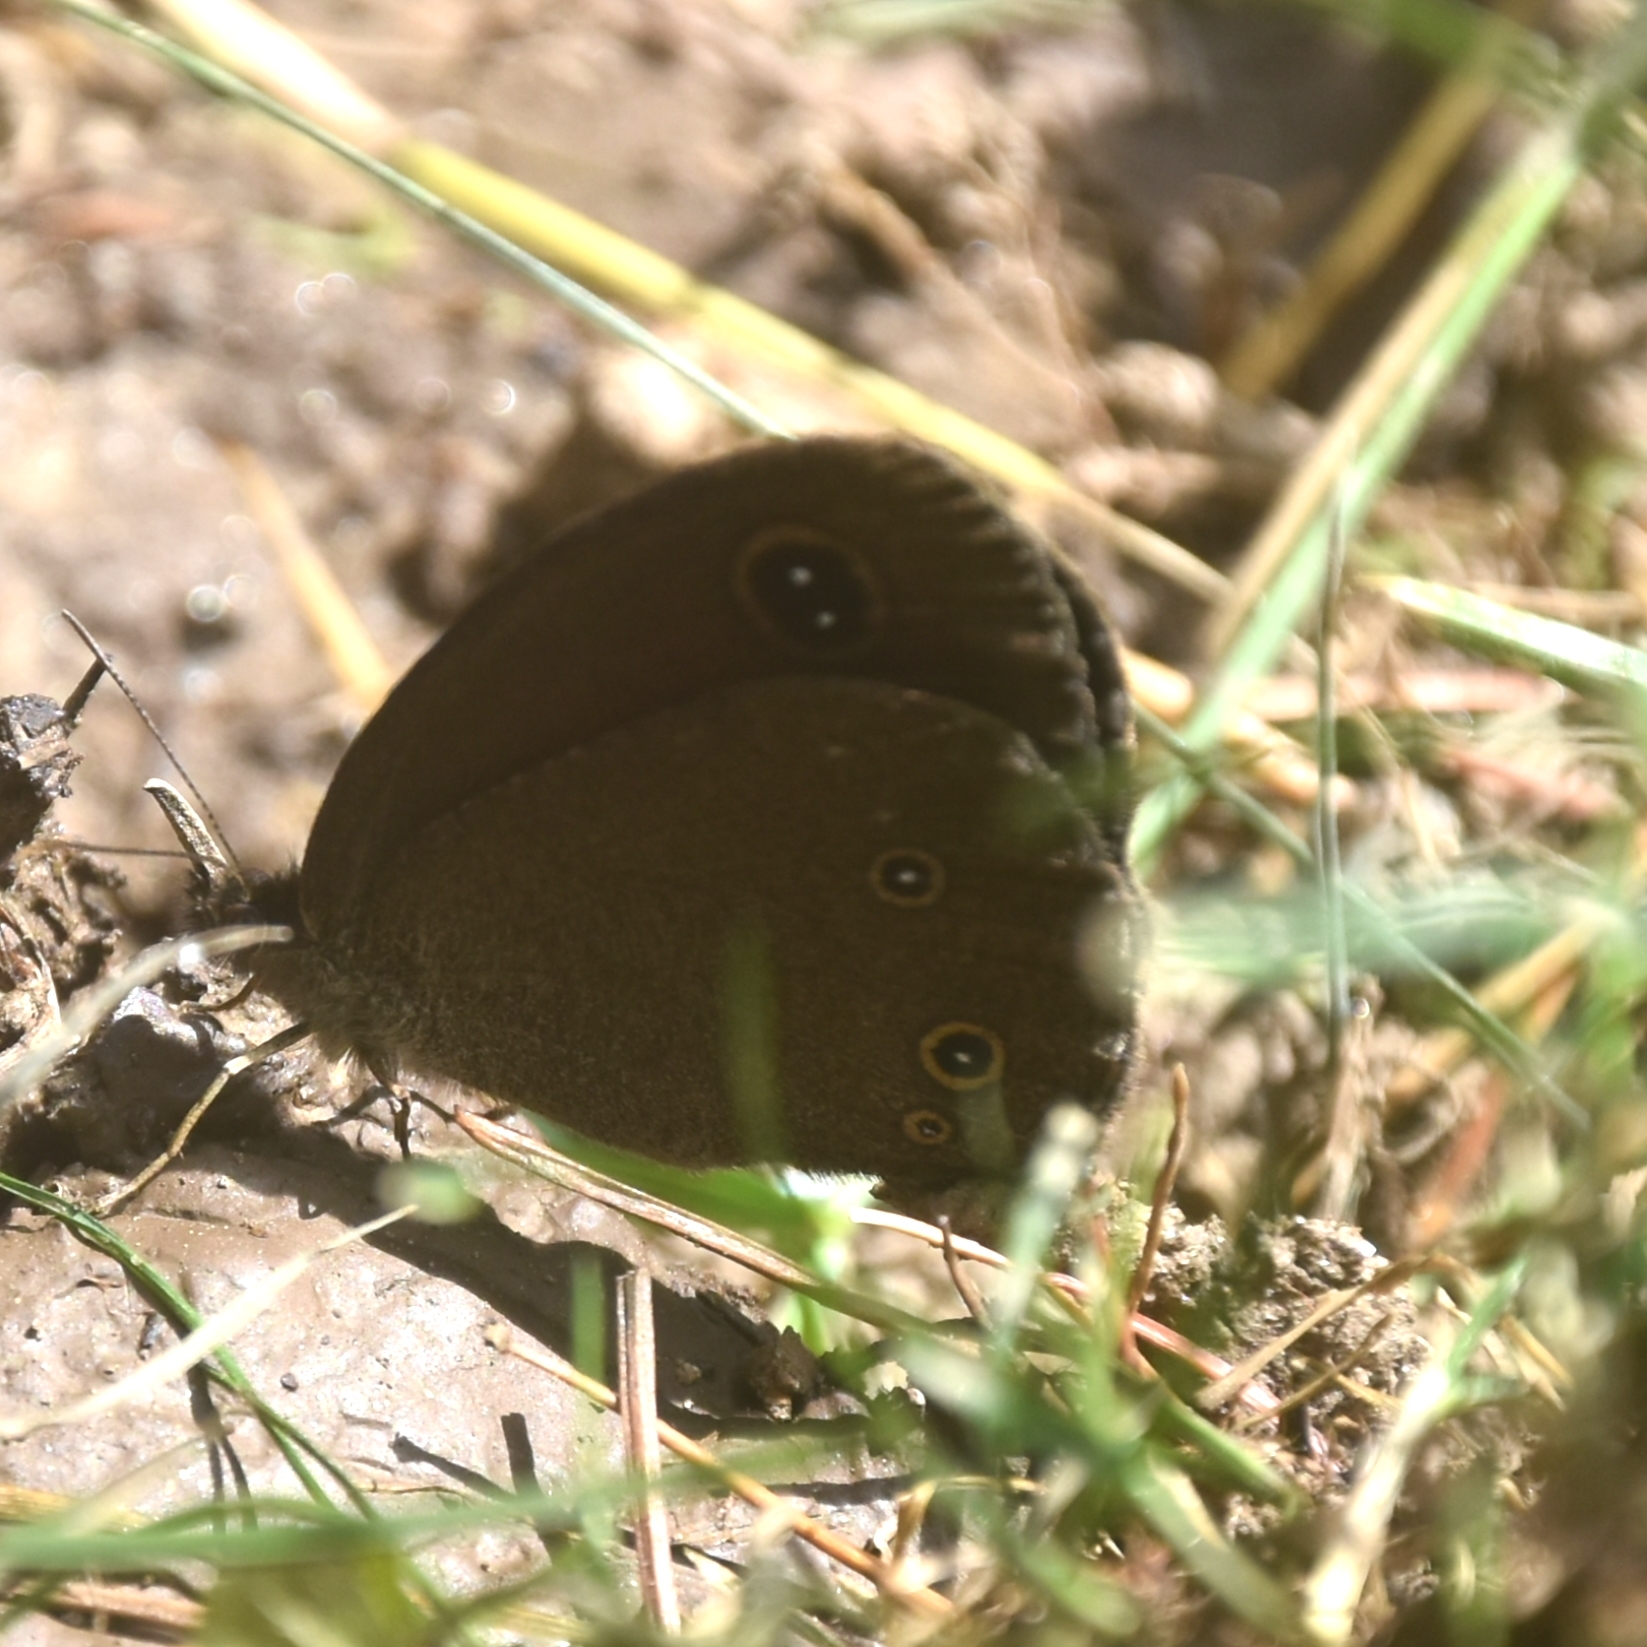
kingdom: Animalia
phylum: Arthropoda
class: Insecta
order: Lepidoptera
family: Nymphalidae
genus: Callerebia
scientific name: Callerebia nirmala
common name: Common argus
